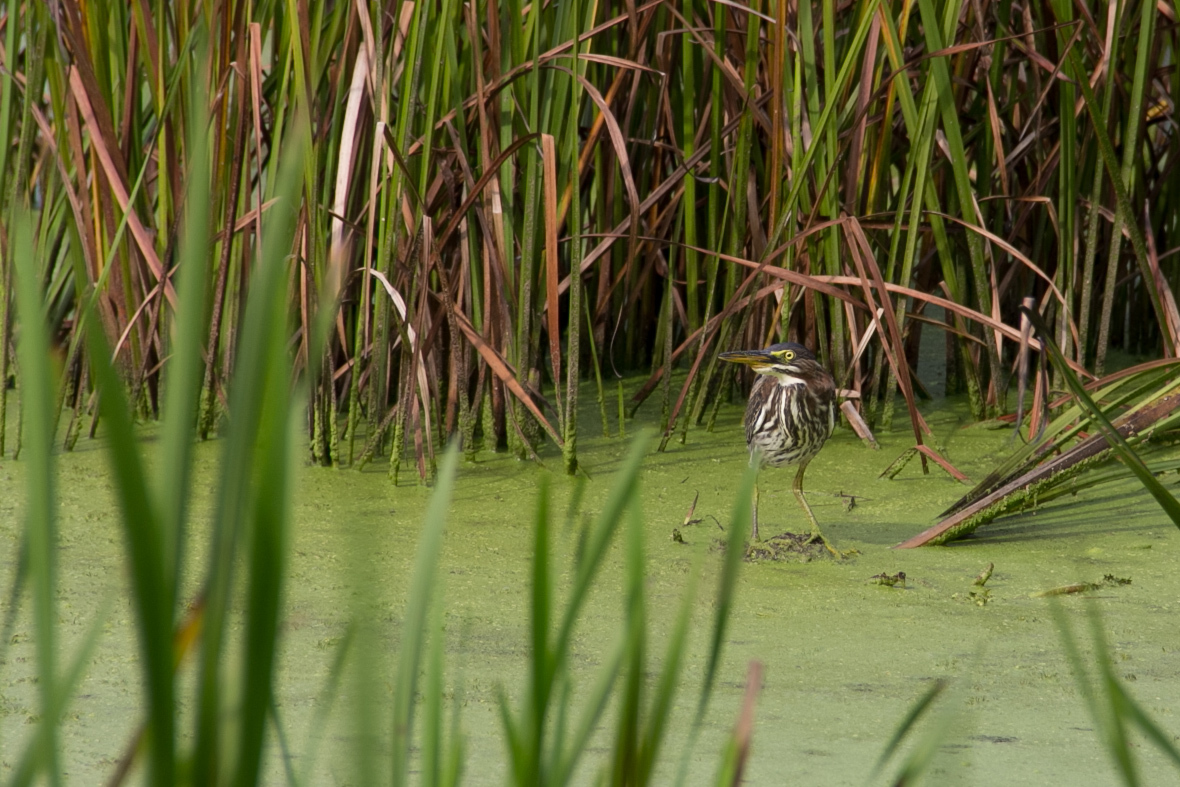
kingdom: Animalia
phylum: Chordata
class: Aves
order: Pelecaniformes
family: Ardeidae
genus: Butorides
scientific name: Butorides virescens
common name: Green heron
